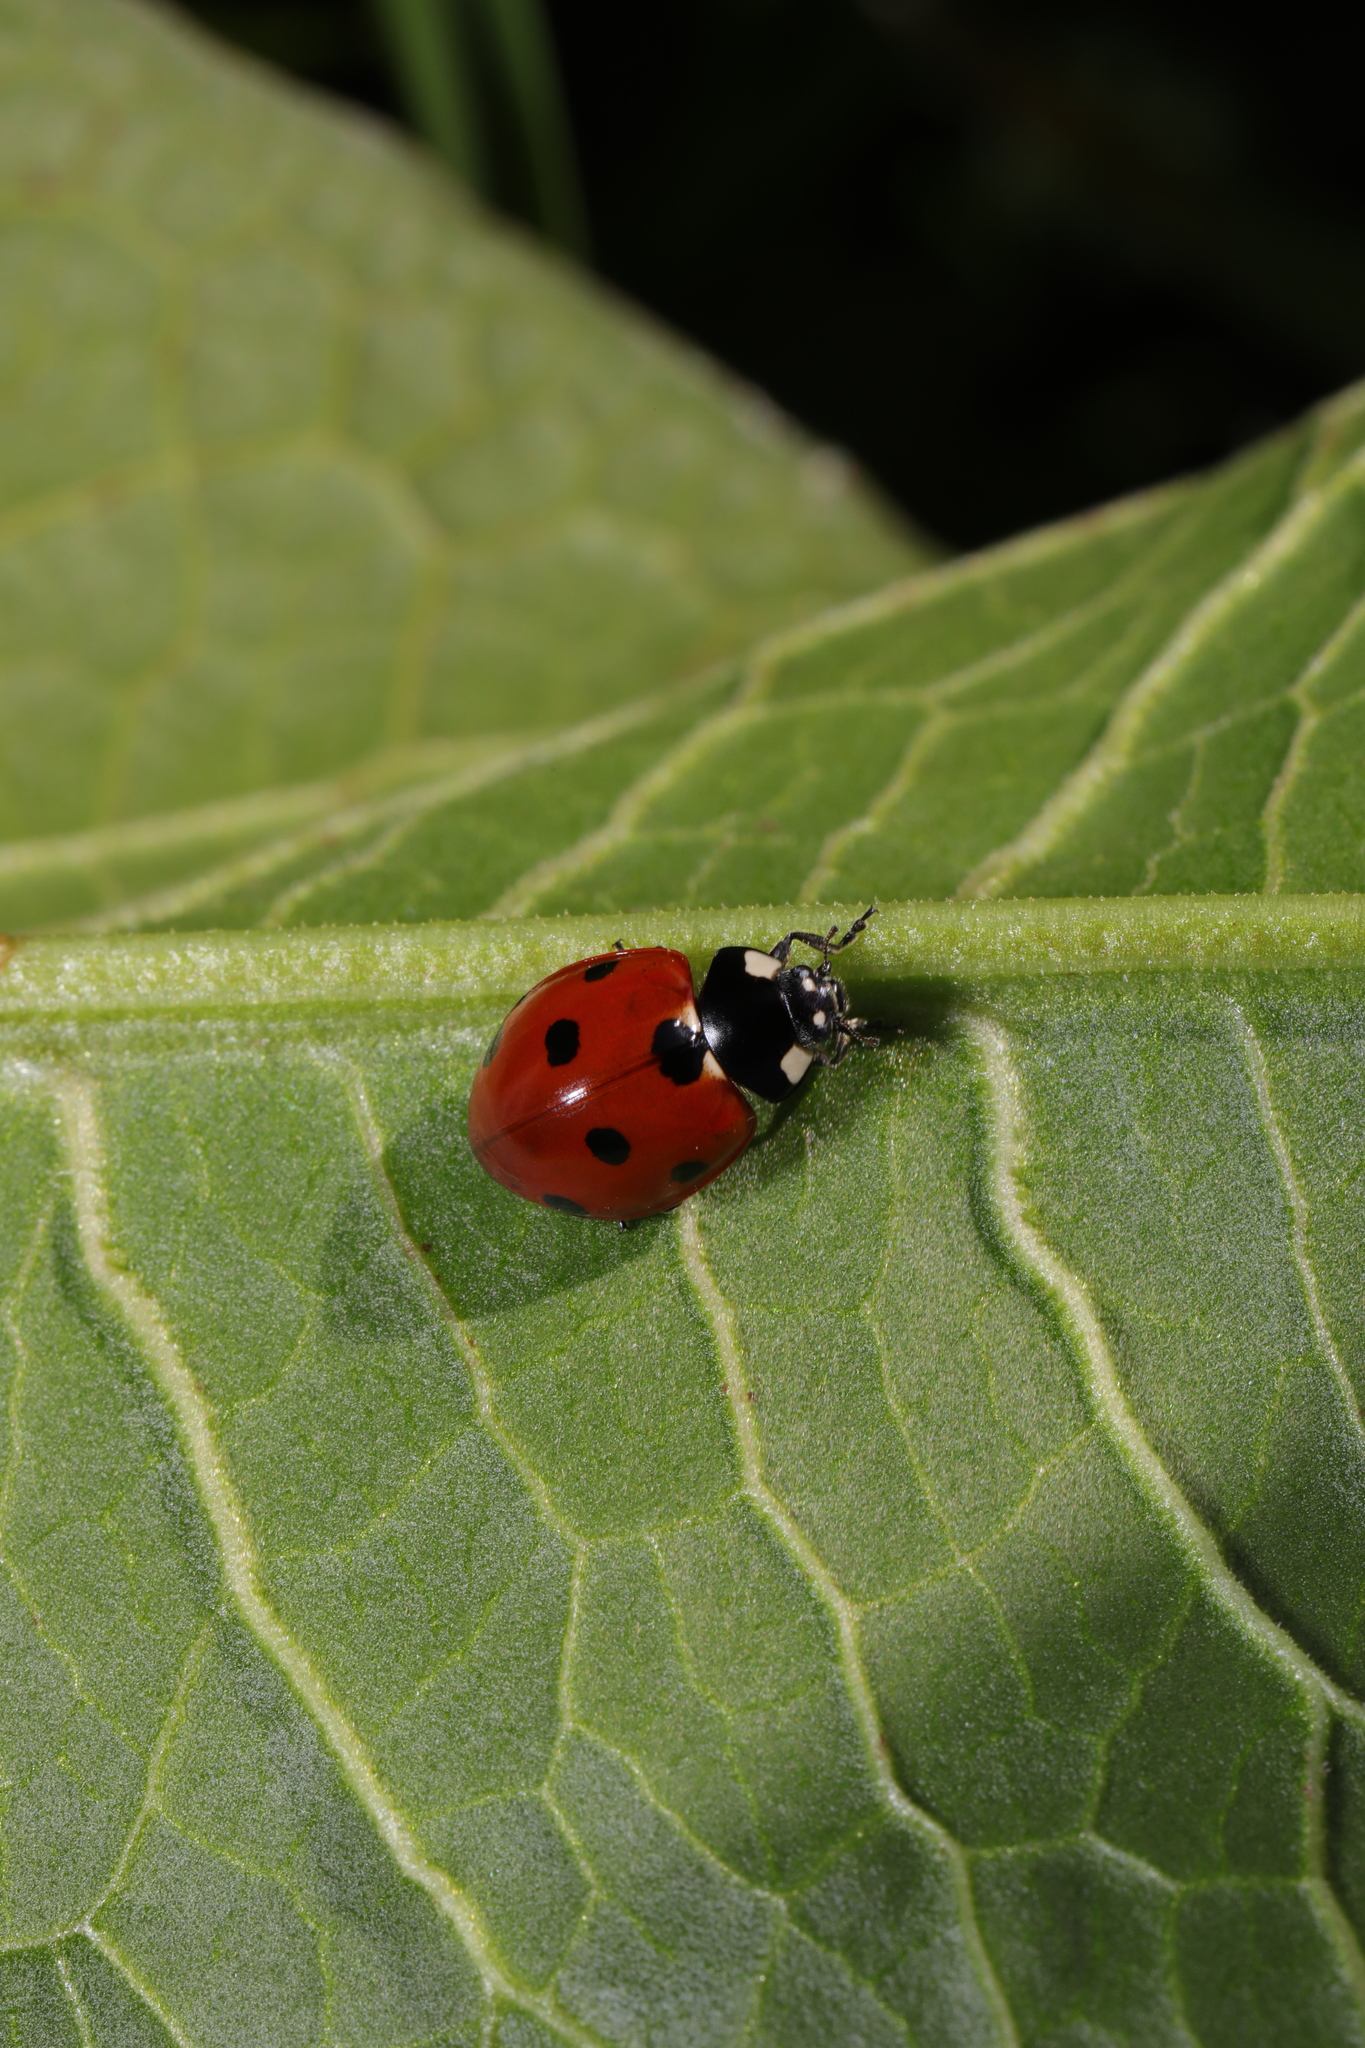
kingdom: Animalia
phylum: Arthropoda
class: Insecta
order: Coleoptera
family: Coccinellidae
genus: Coccinella
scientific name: Coccinella septempunctata
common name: Sevenspotted lady beetle
